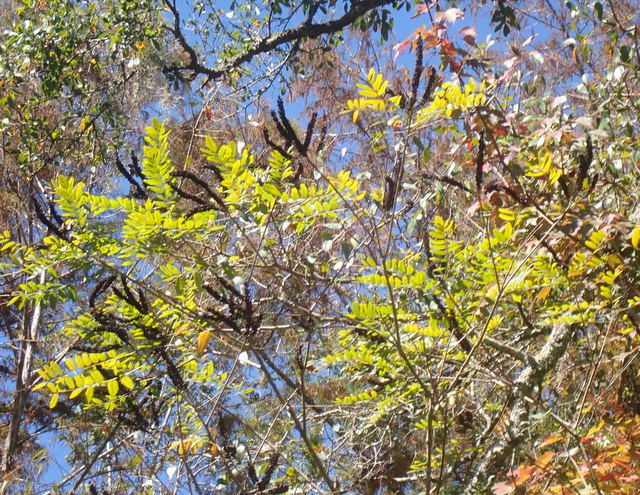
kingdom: Plantae
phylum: Tracheophyta
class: Magnoliopsida
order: Fabales
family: Fabaceae
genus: Amorpha
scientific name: Amorpha fruticosa
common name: False indigo
